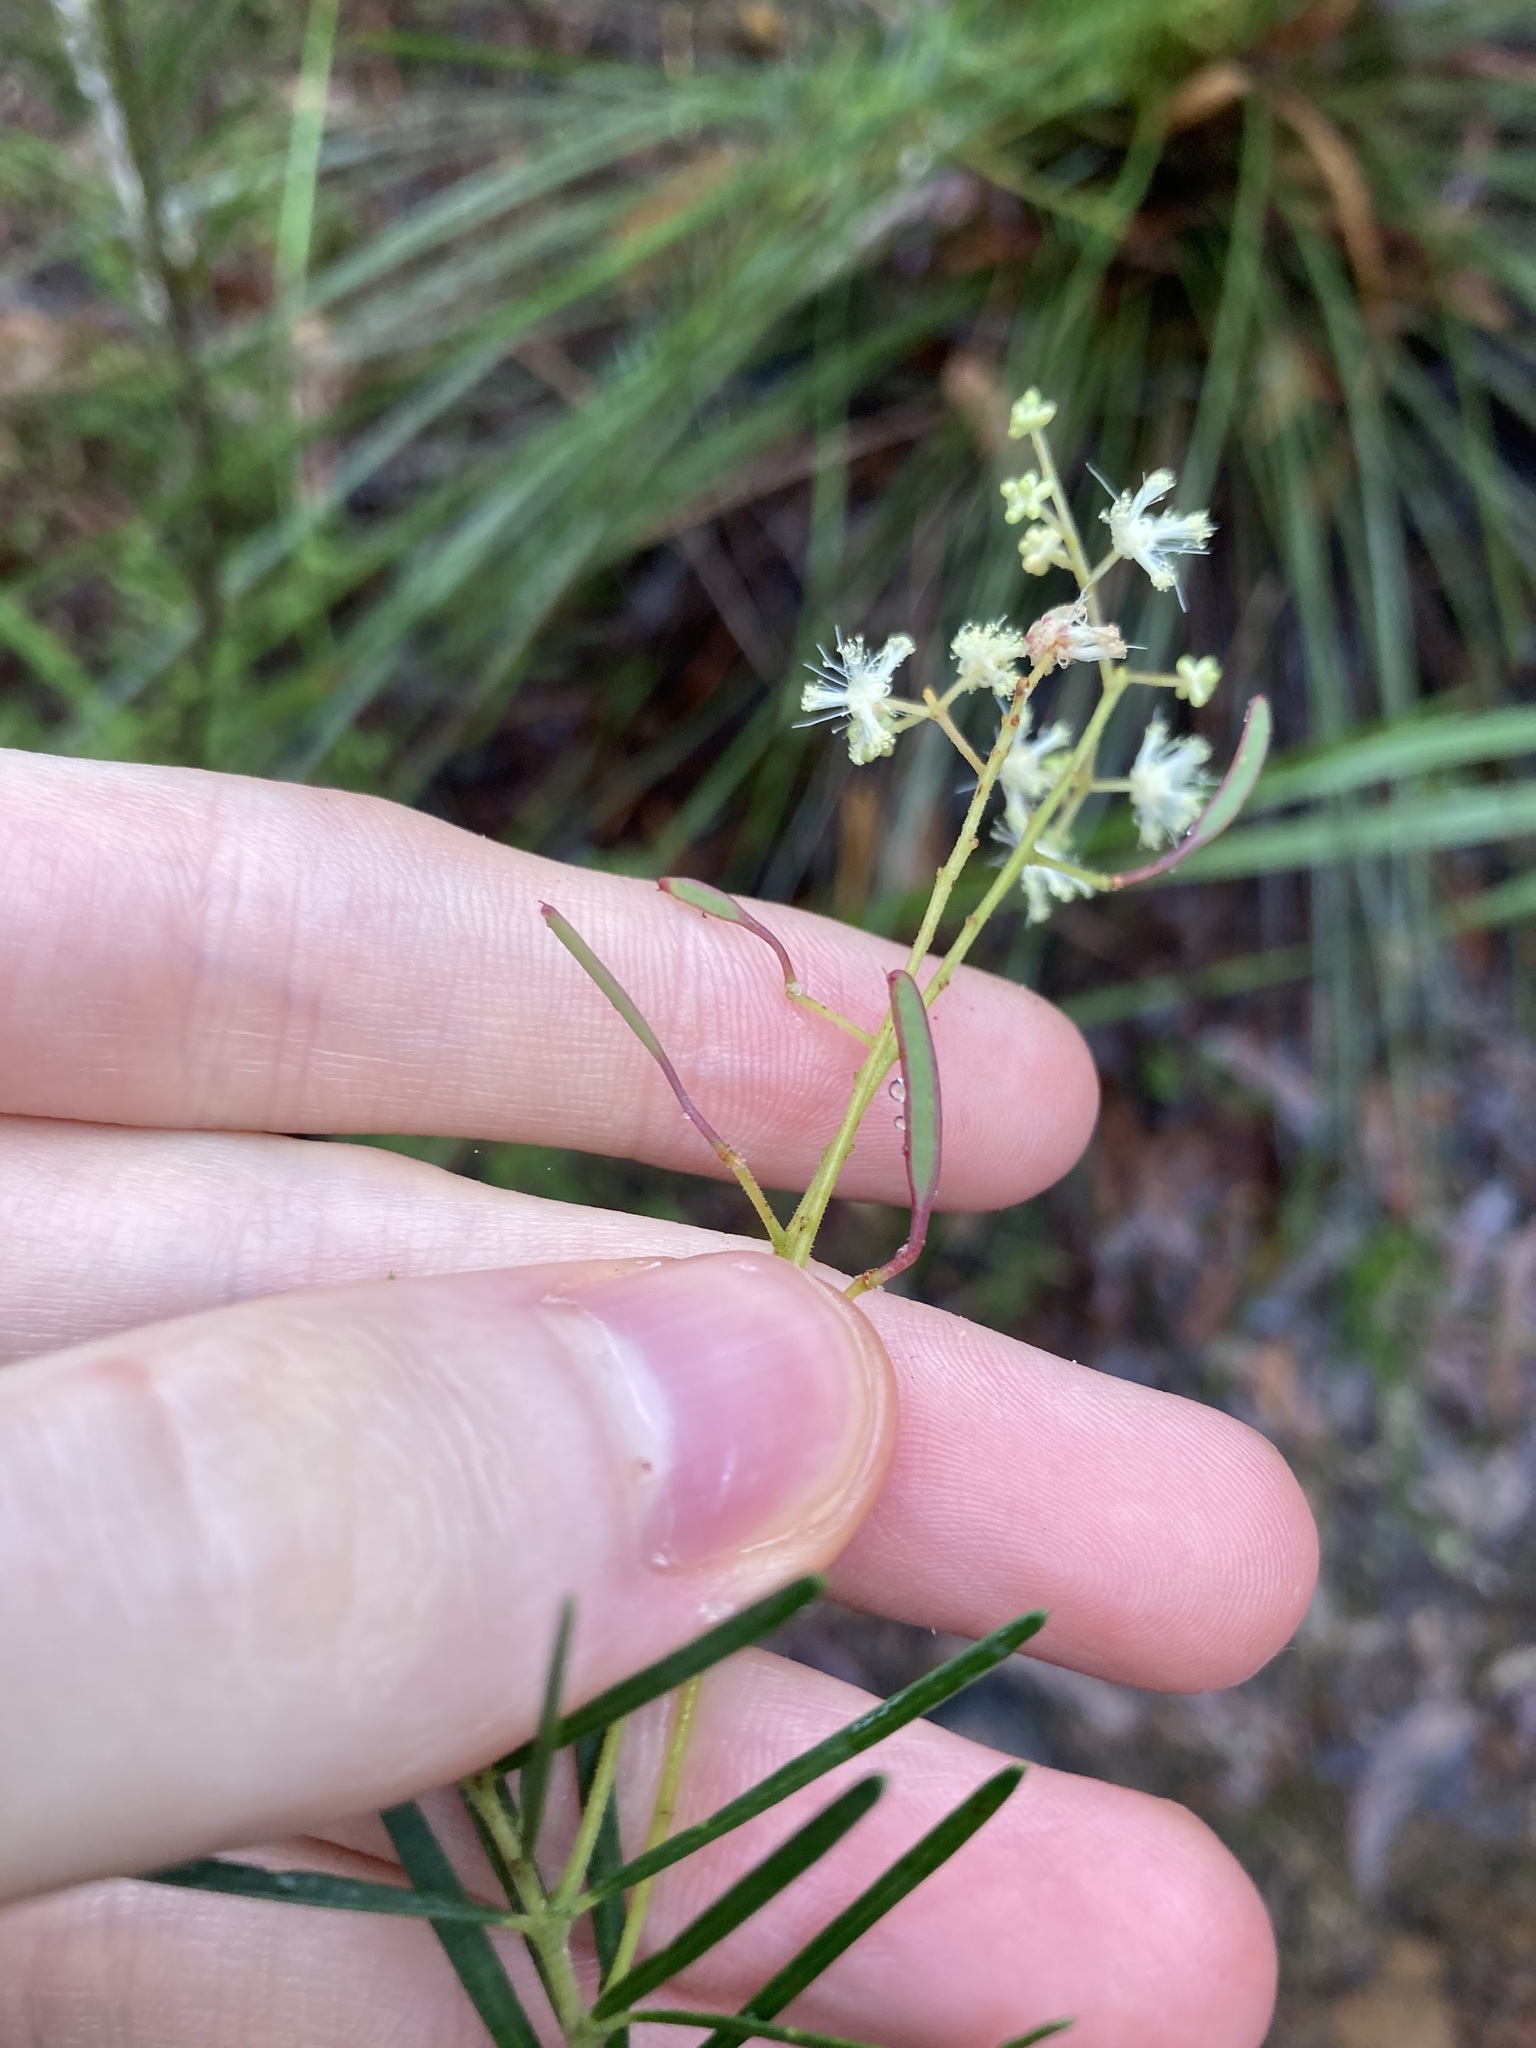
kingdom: Plantae
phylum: Tracheophyta
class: Magnoliopsida
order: Fabales
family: Fabaceae
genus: Acacia
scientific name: Acacia linifolia
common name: White wattle
